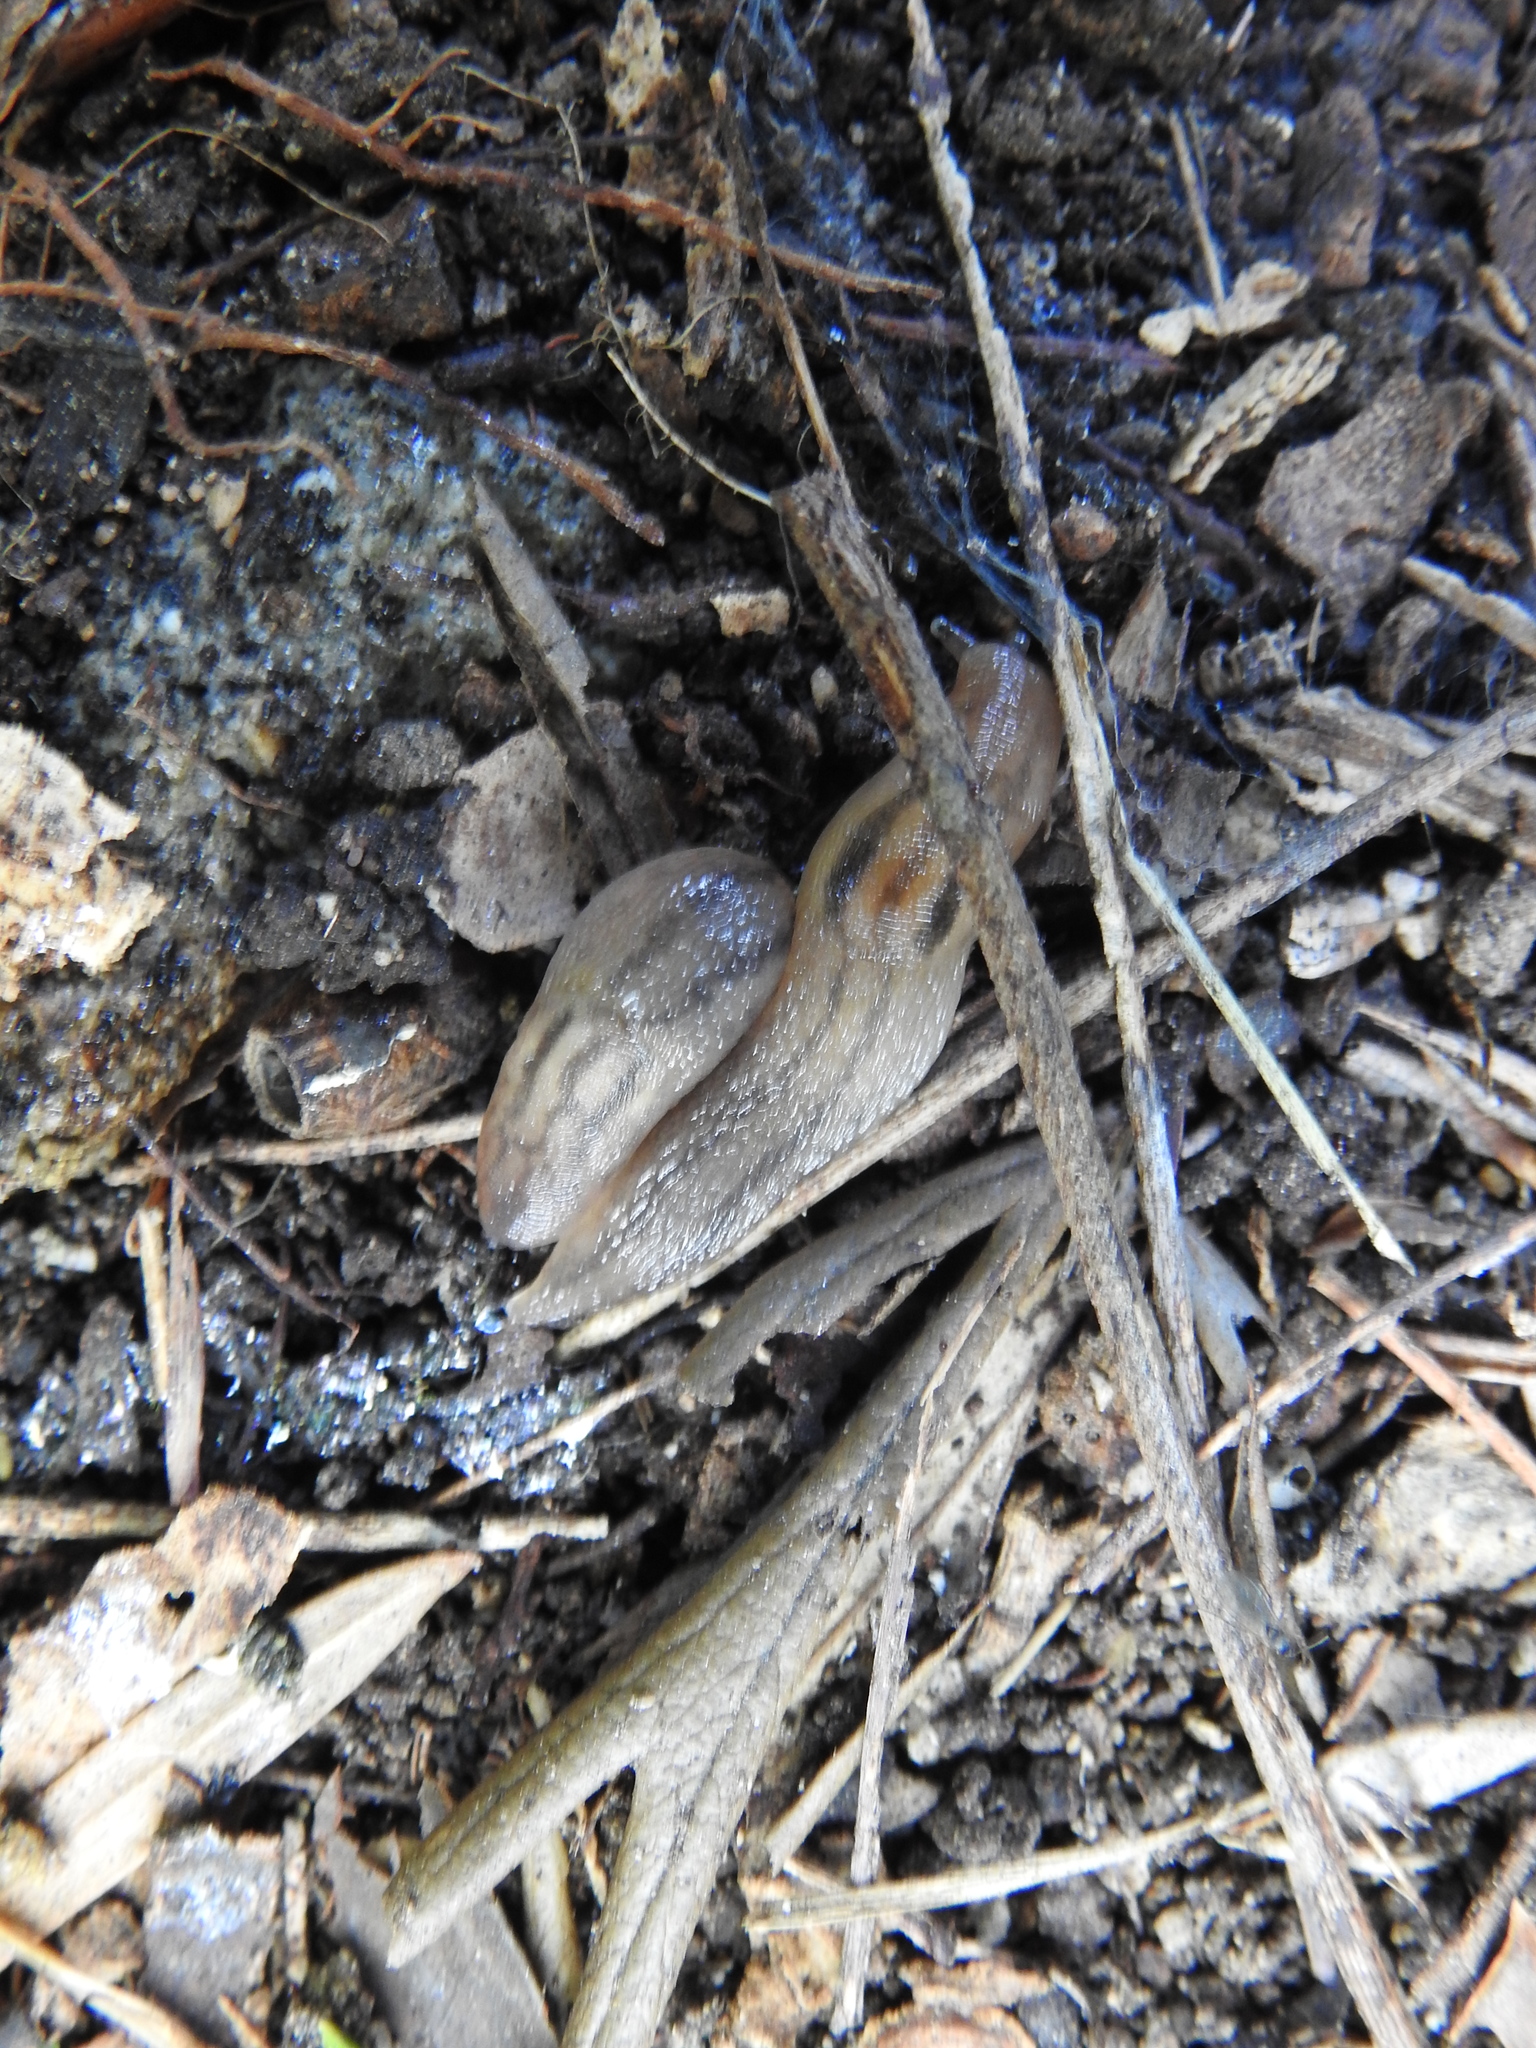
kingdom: Animalia
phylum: Mollusca
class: Gastropoda
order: Stylommatophora
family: Limacidae
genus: Ambigolimax
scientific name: Ambigolimax
